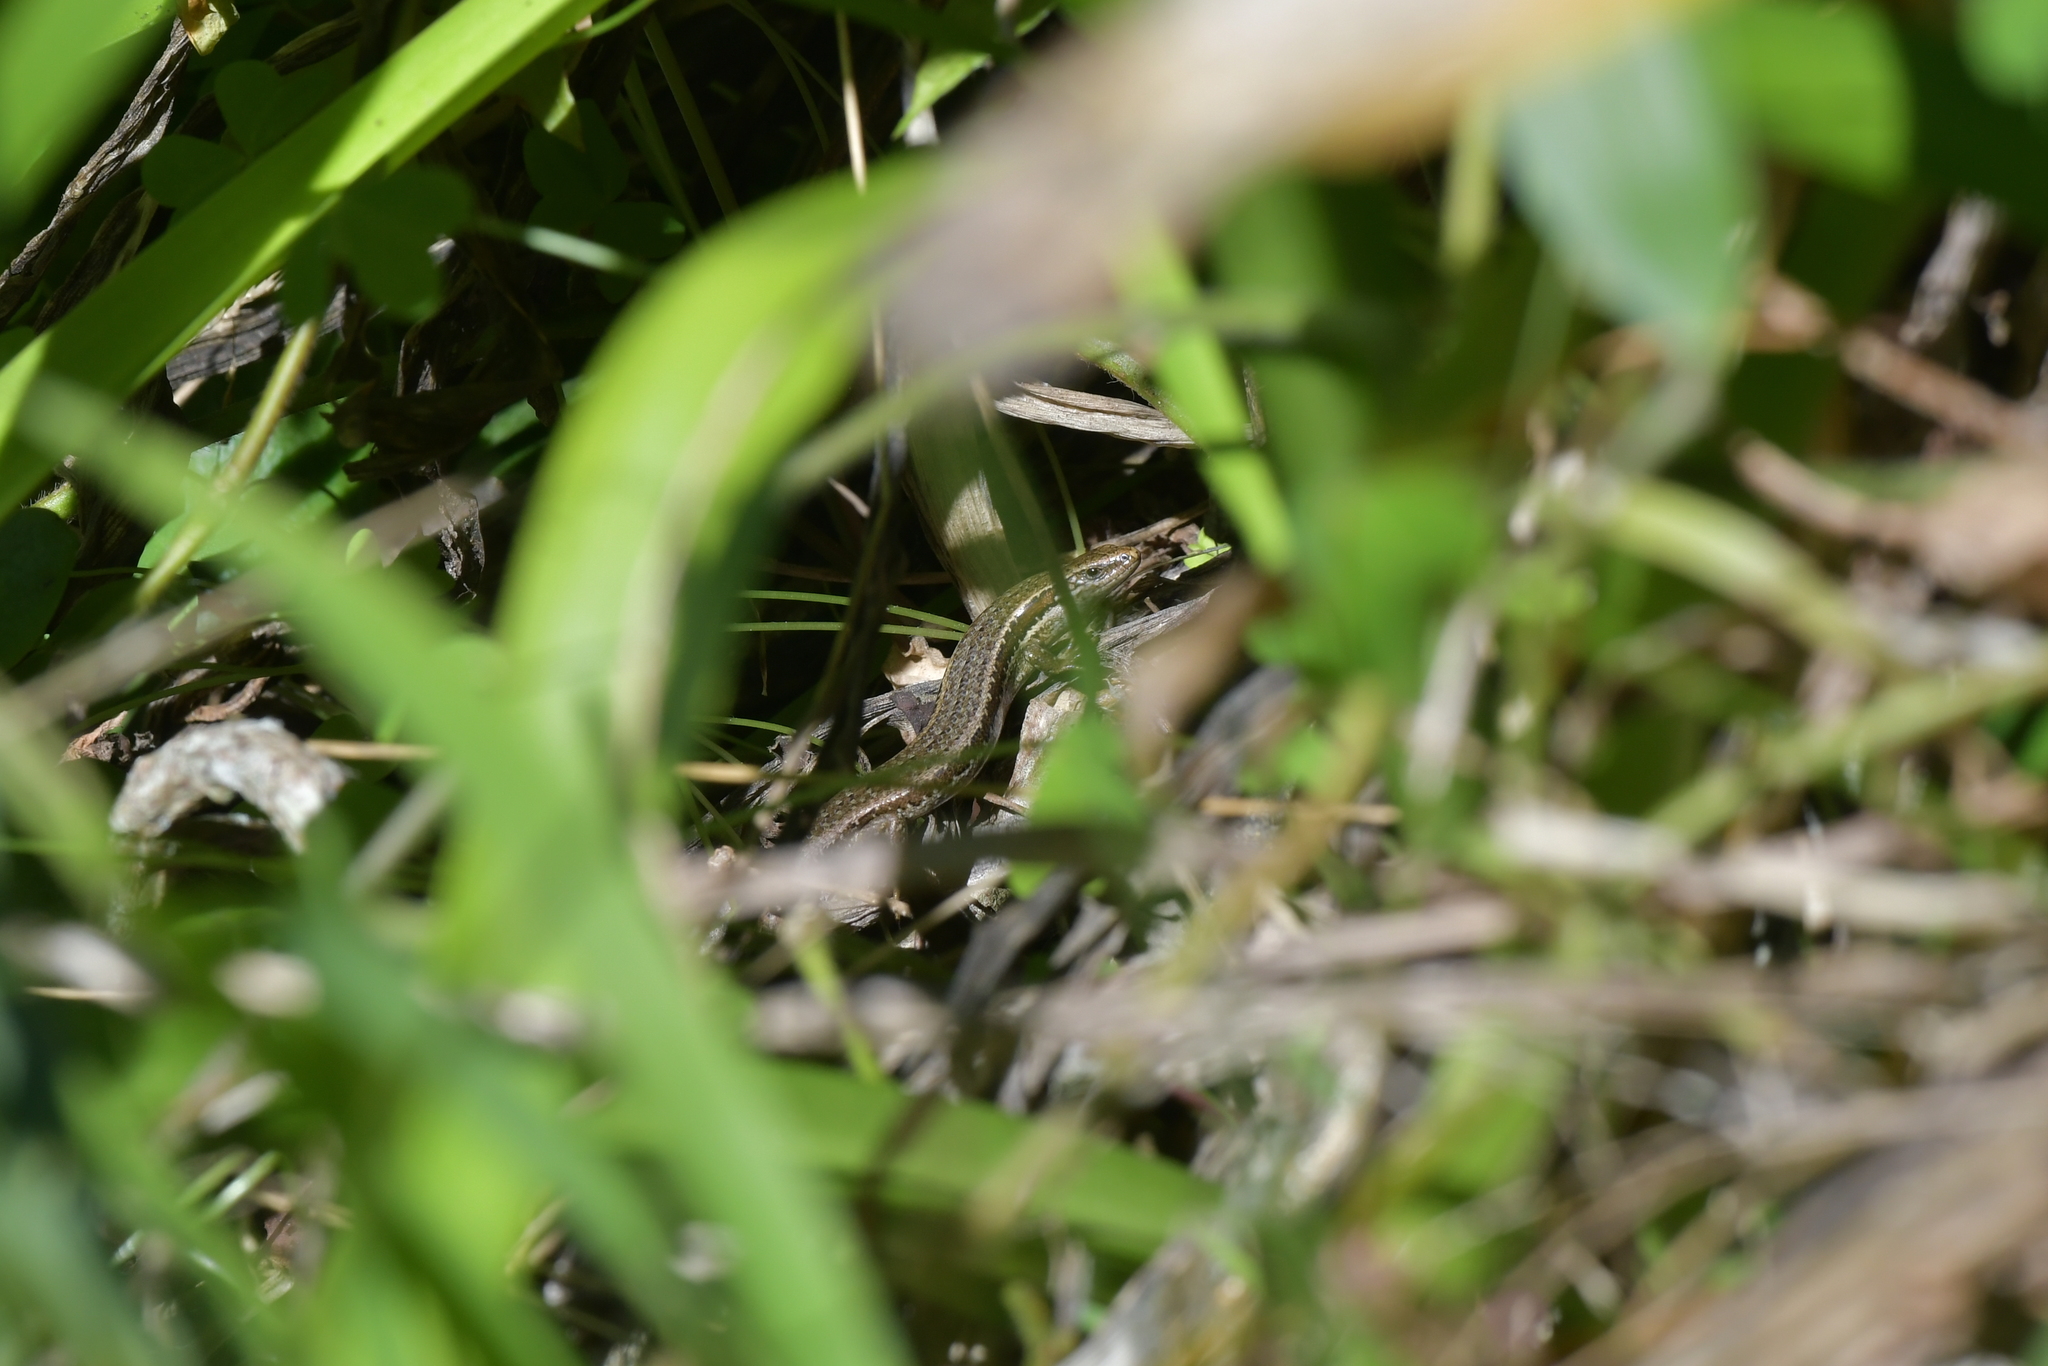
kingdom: Animalia
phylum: Chordata
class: Squamata
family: Scincidae
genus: Oligosoma
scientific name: Oligosoma polychroma
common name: Common new zealand skink
